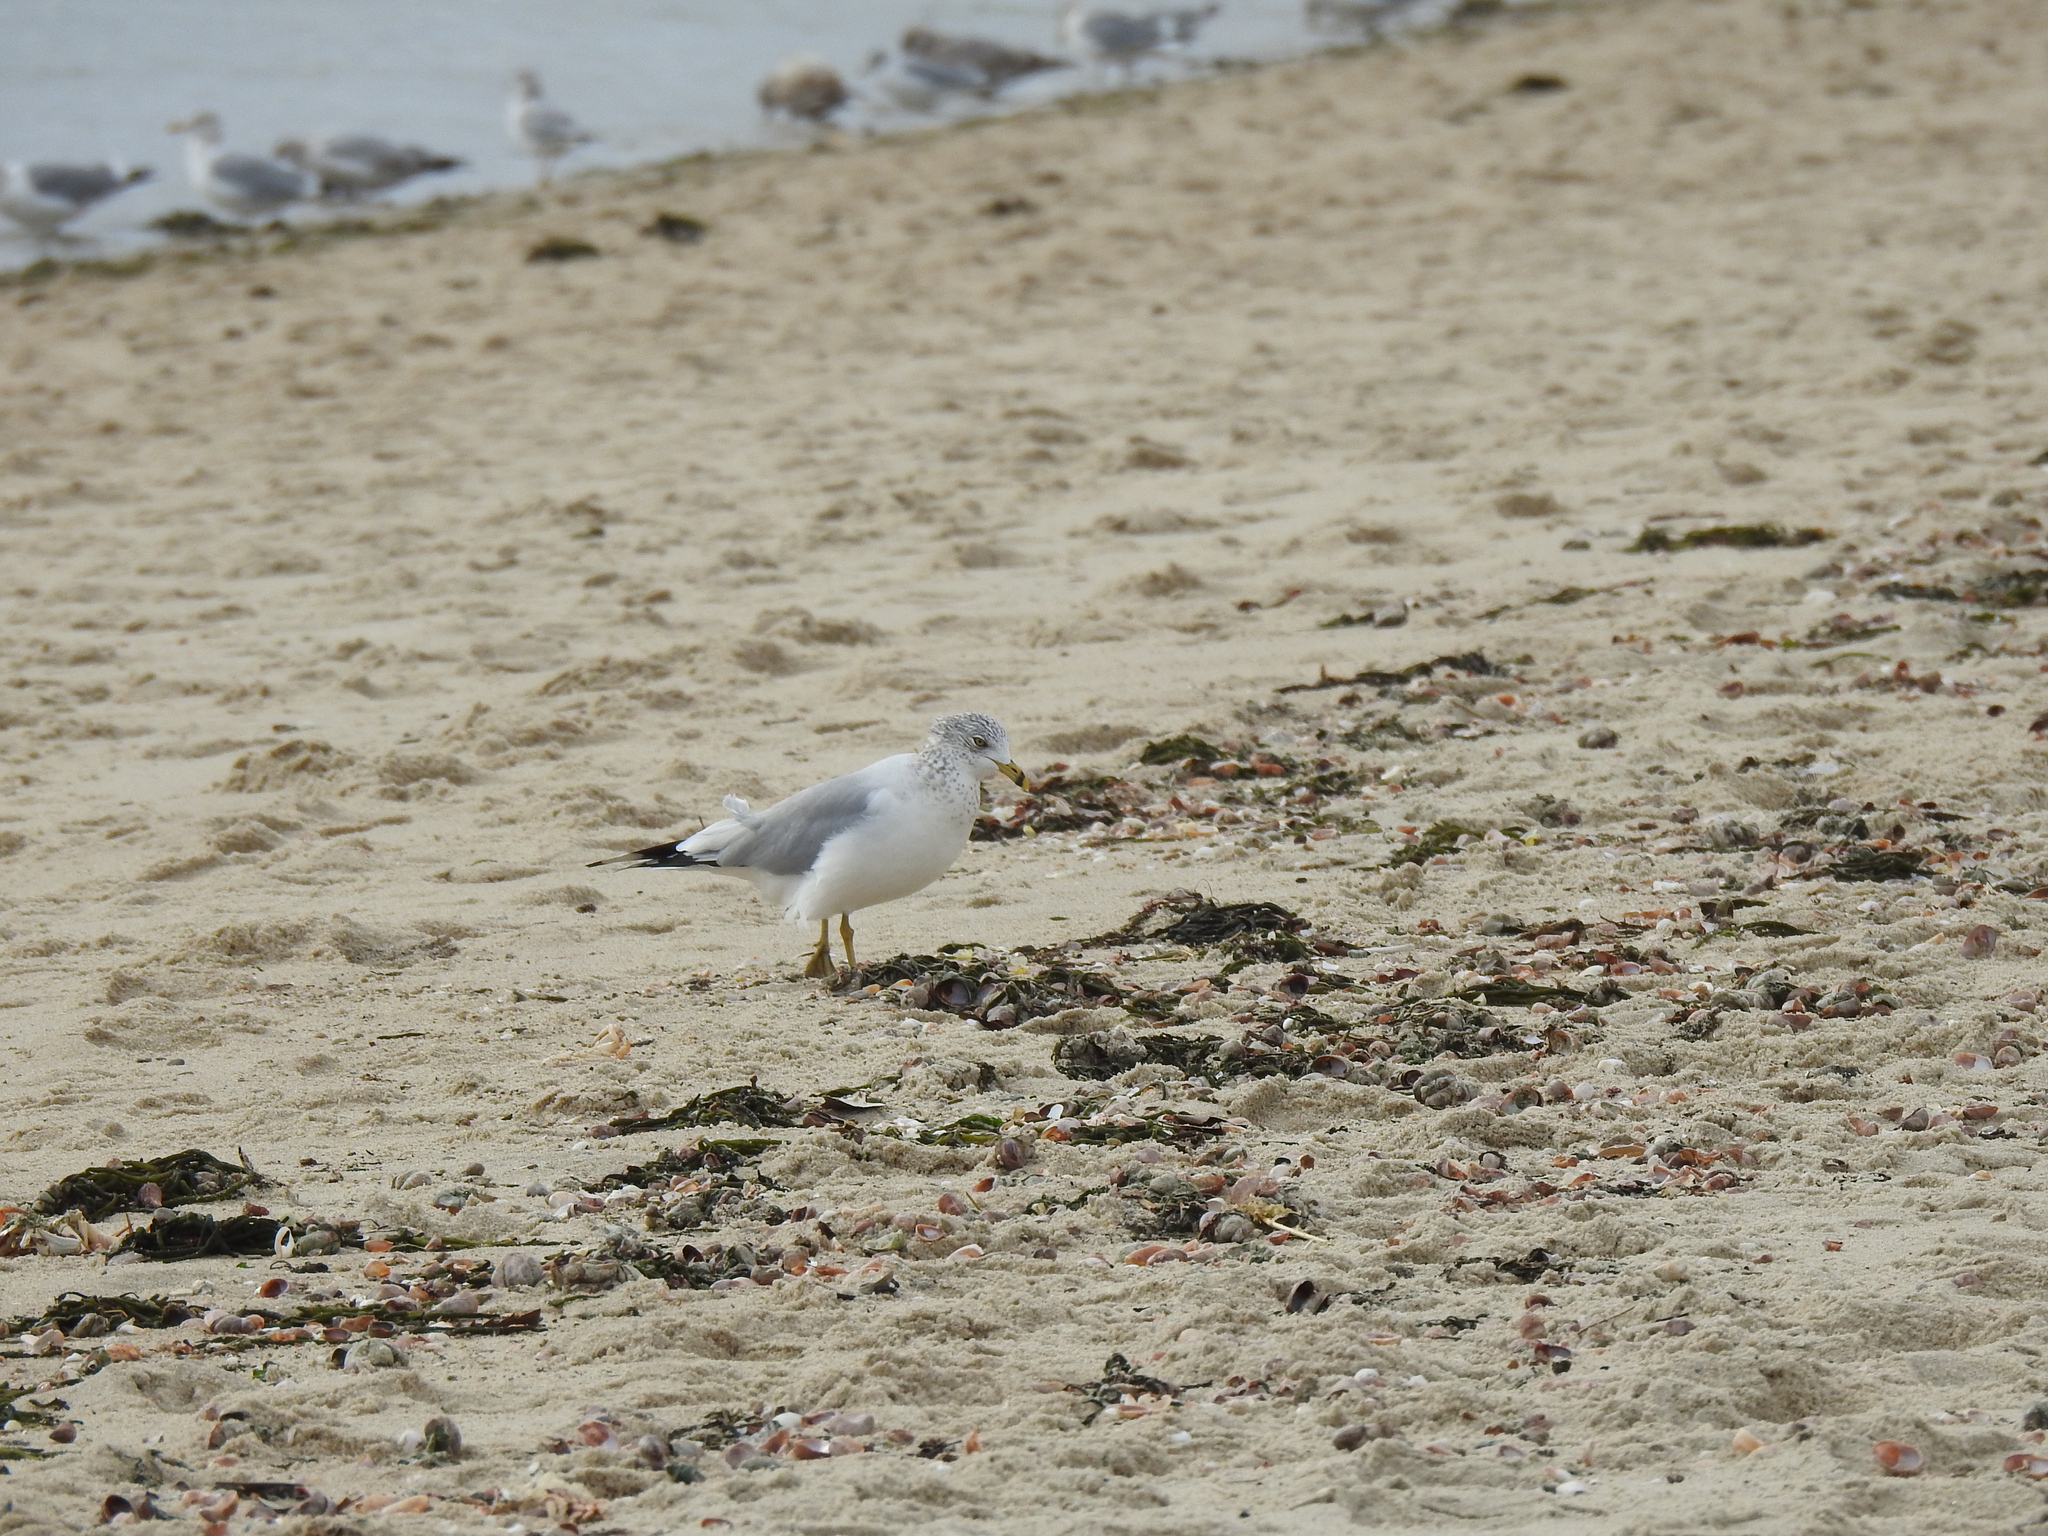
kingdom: Animalia
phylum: Chordata
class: Aves
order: Charadriiformes
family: Laridae
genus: Larus
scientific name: Larus delawarensis
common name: Ring-billed gull
